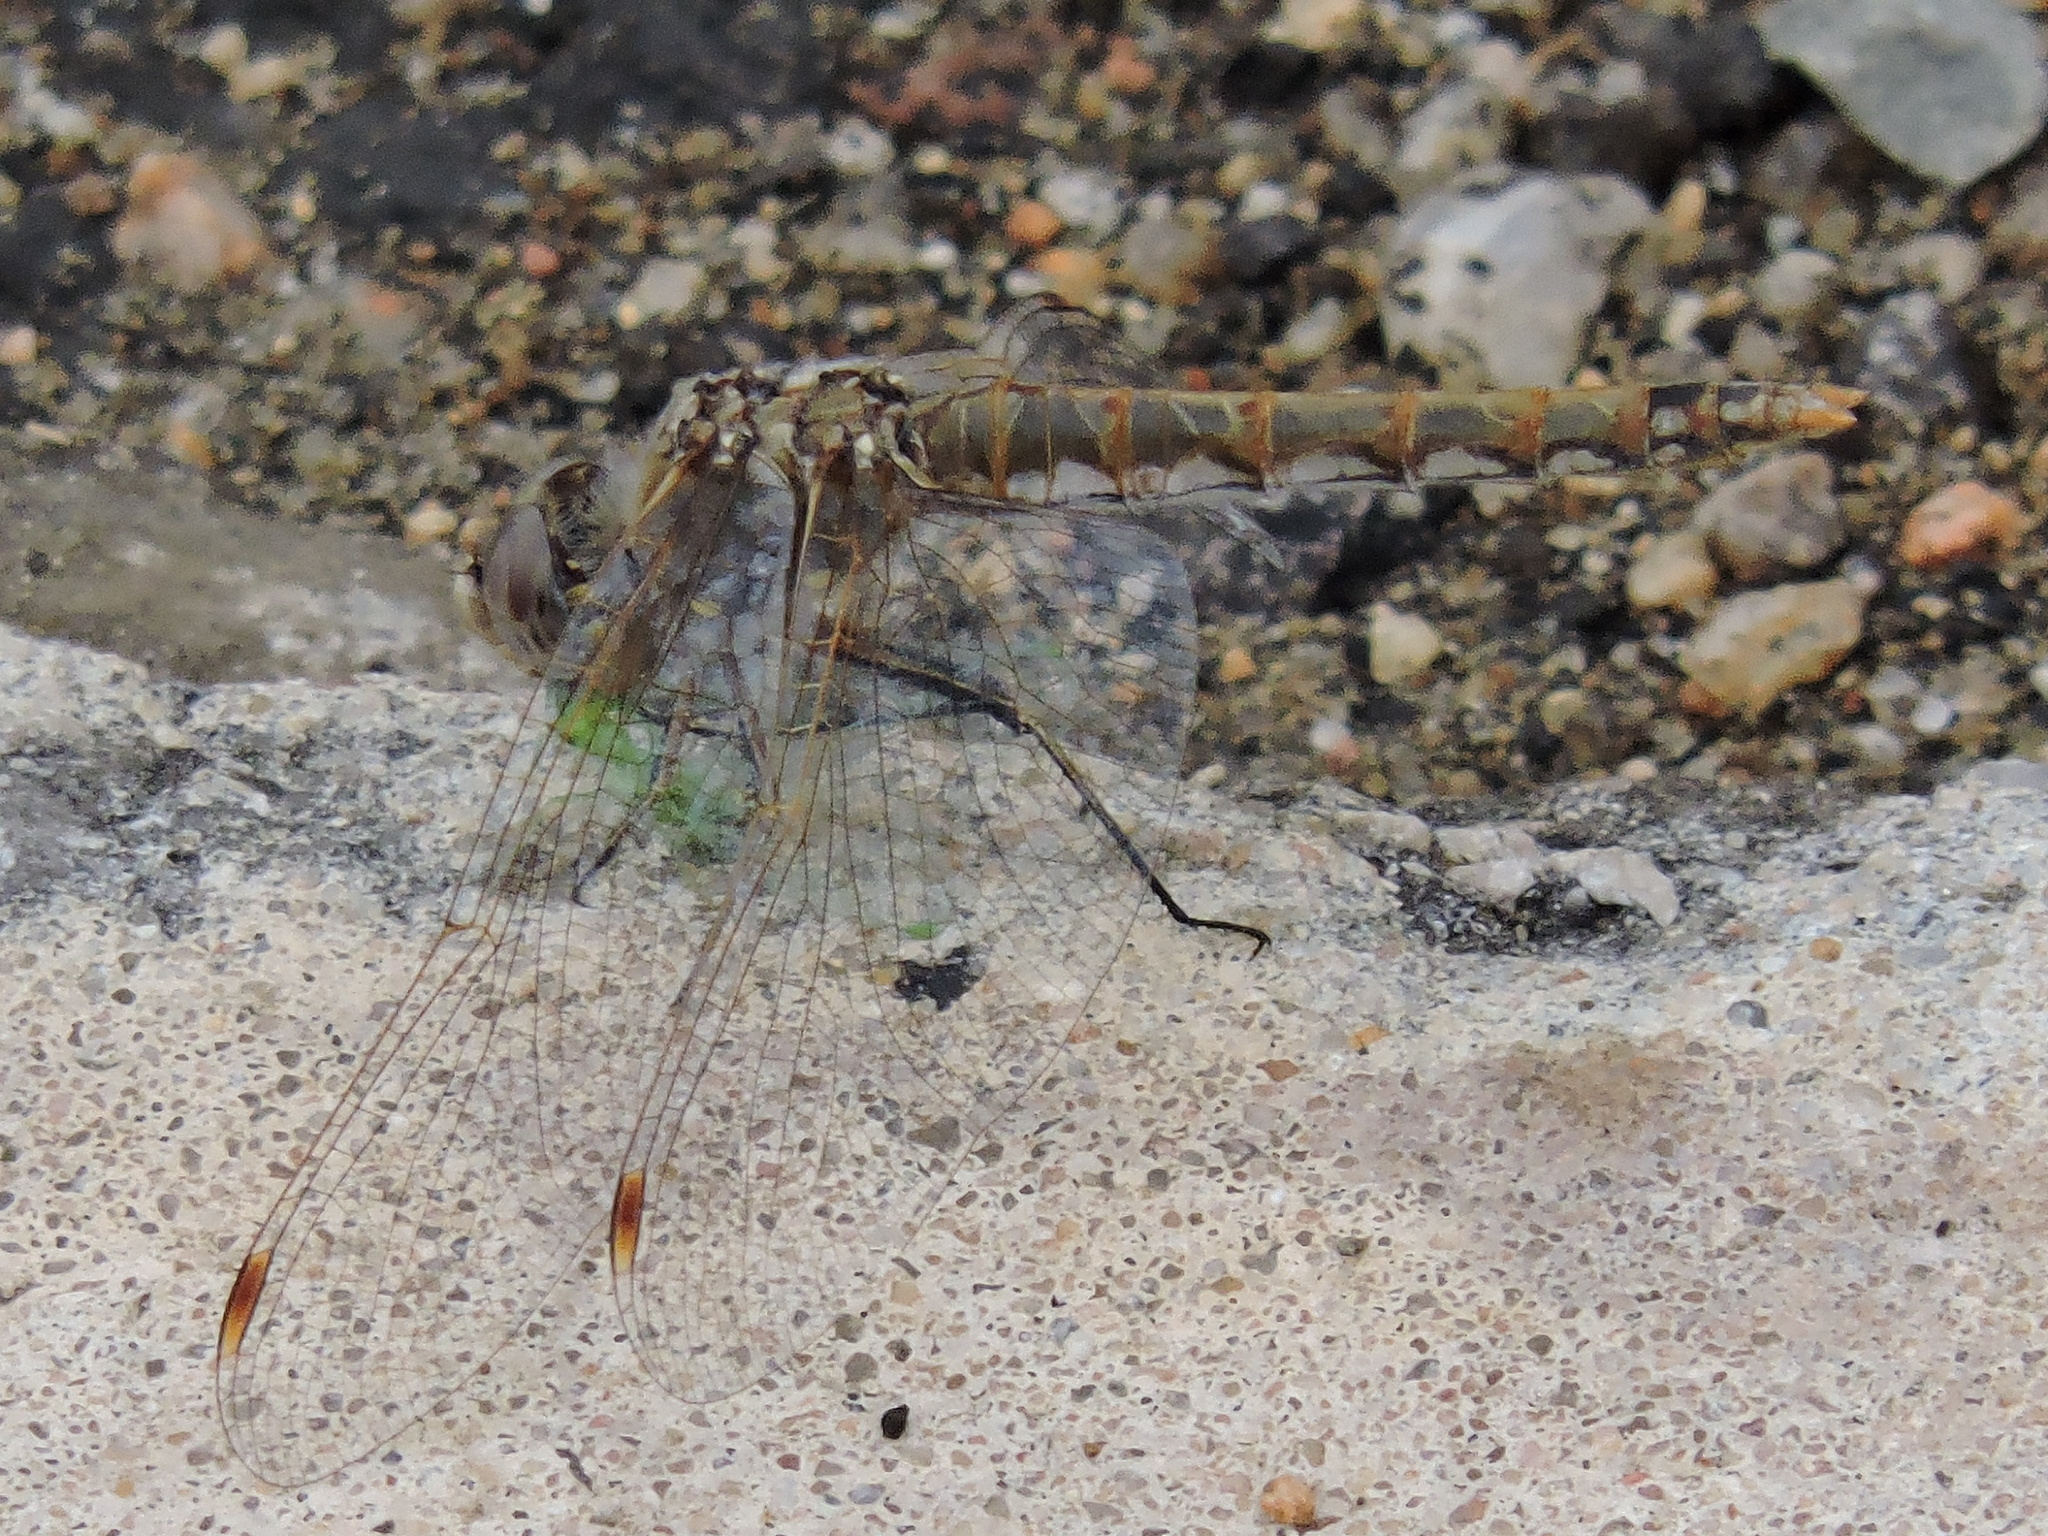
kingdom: Animalia
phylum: Arthropoda
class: Insecta
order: Odonata
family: Libellulidae
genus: Sympetrum
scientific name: Sympetrum corruptum
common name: Variegated meadowhawk
